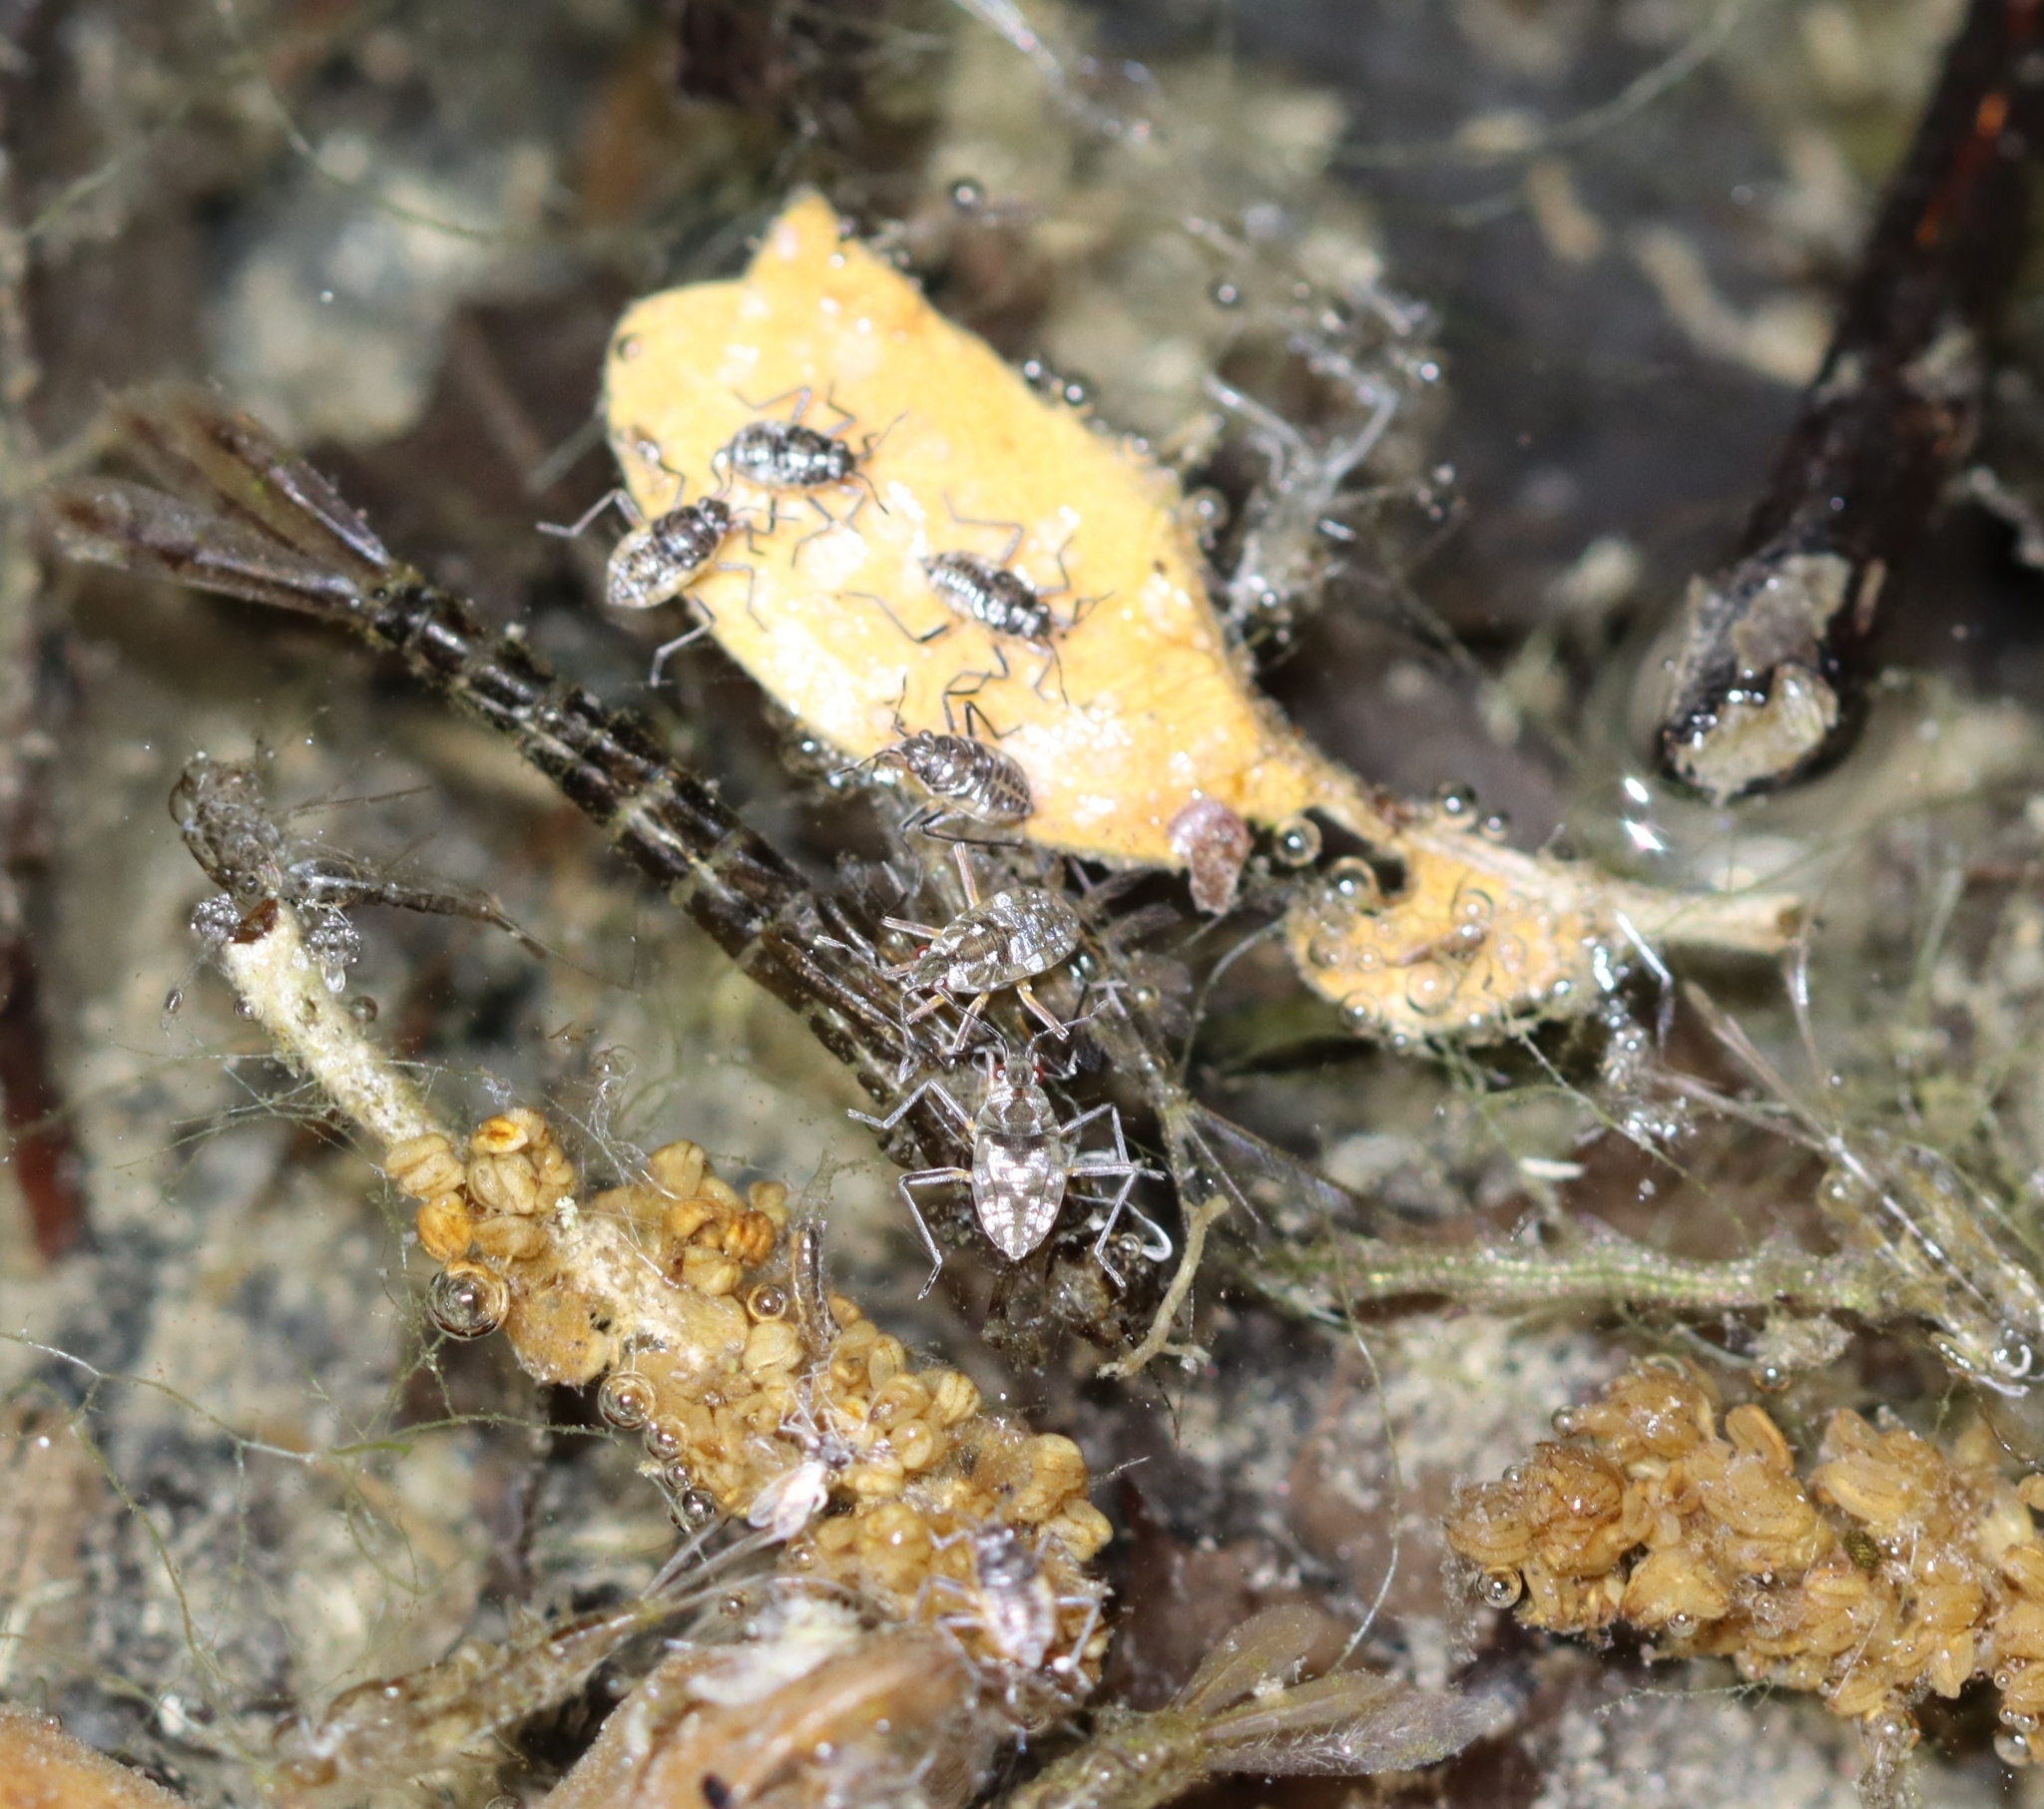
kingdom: Animalia
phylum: Arthropoda
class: Insecta
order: Hemiptera
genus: Kirkaldya
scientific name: Kirkaldya
